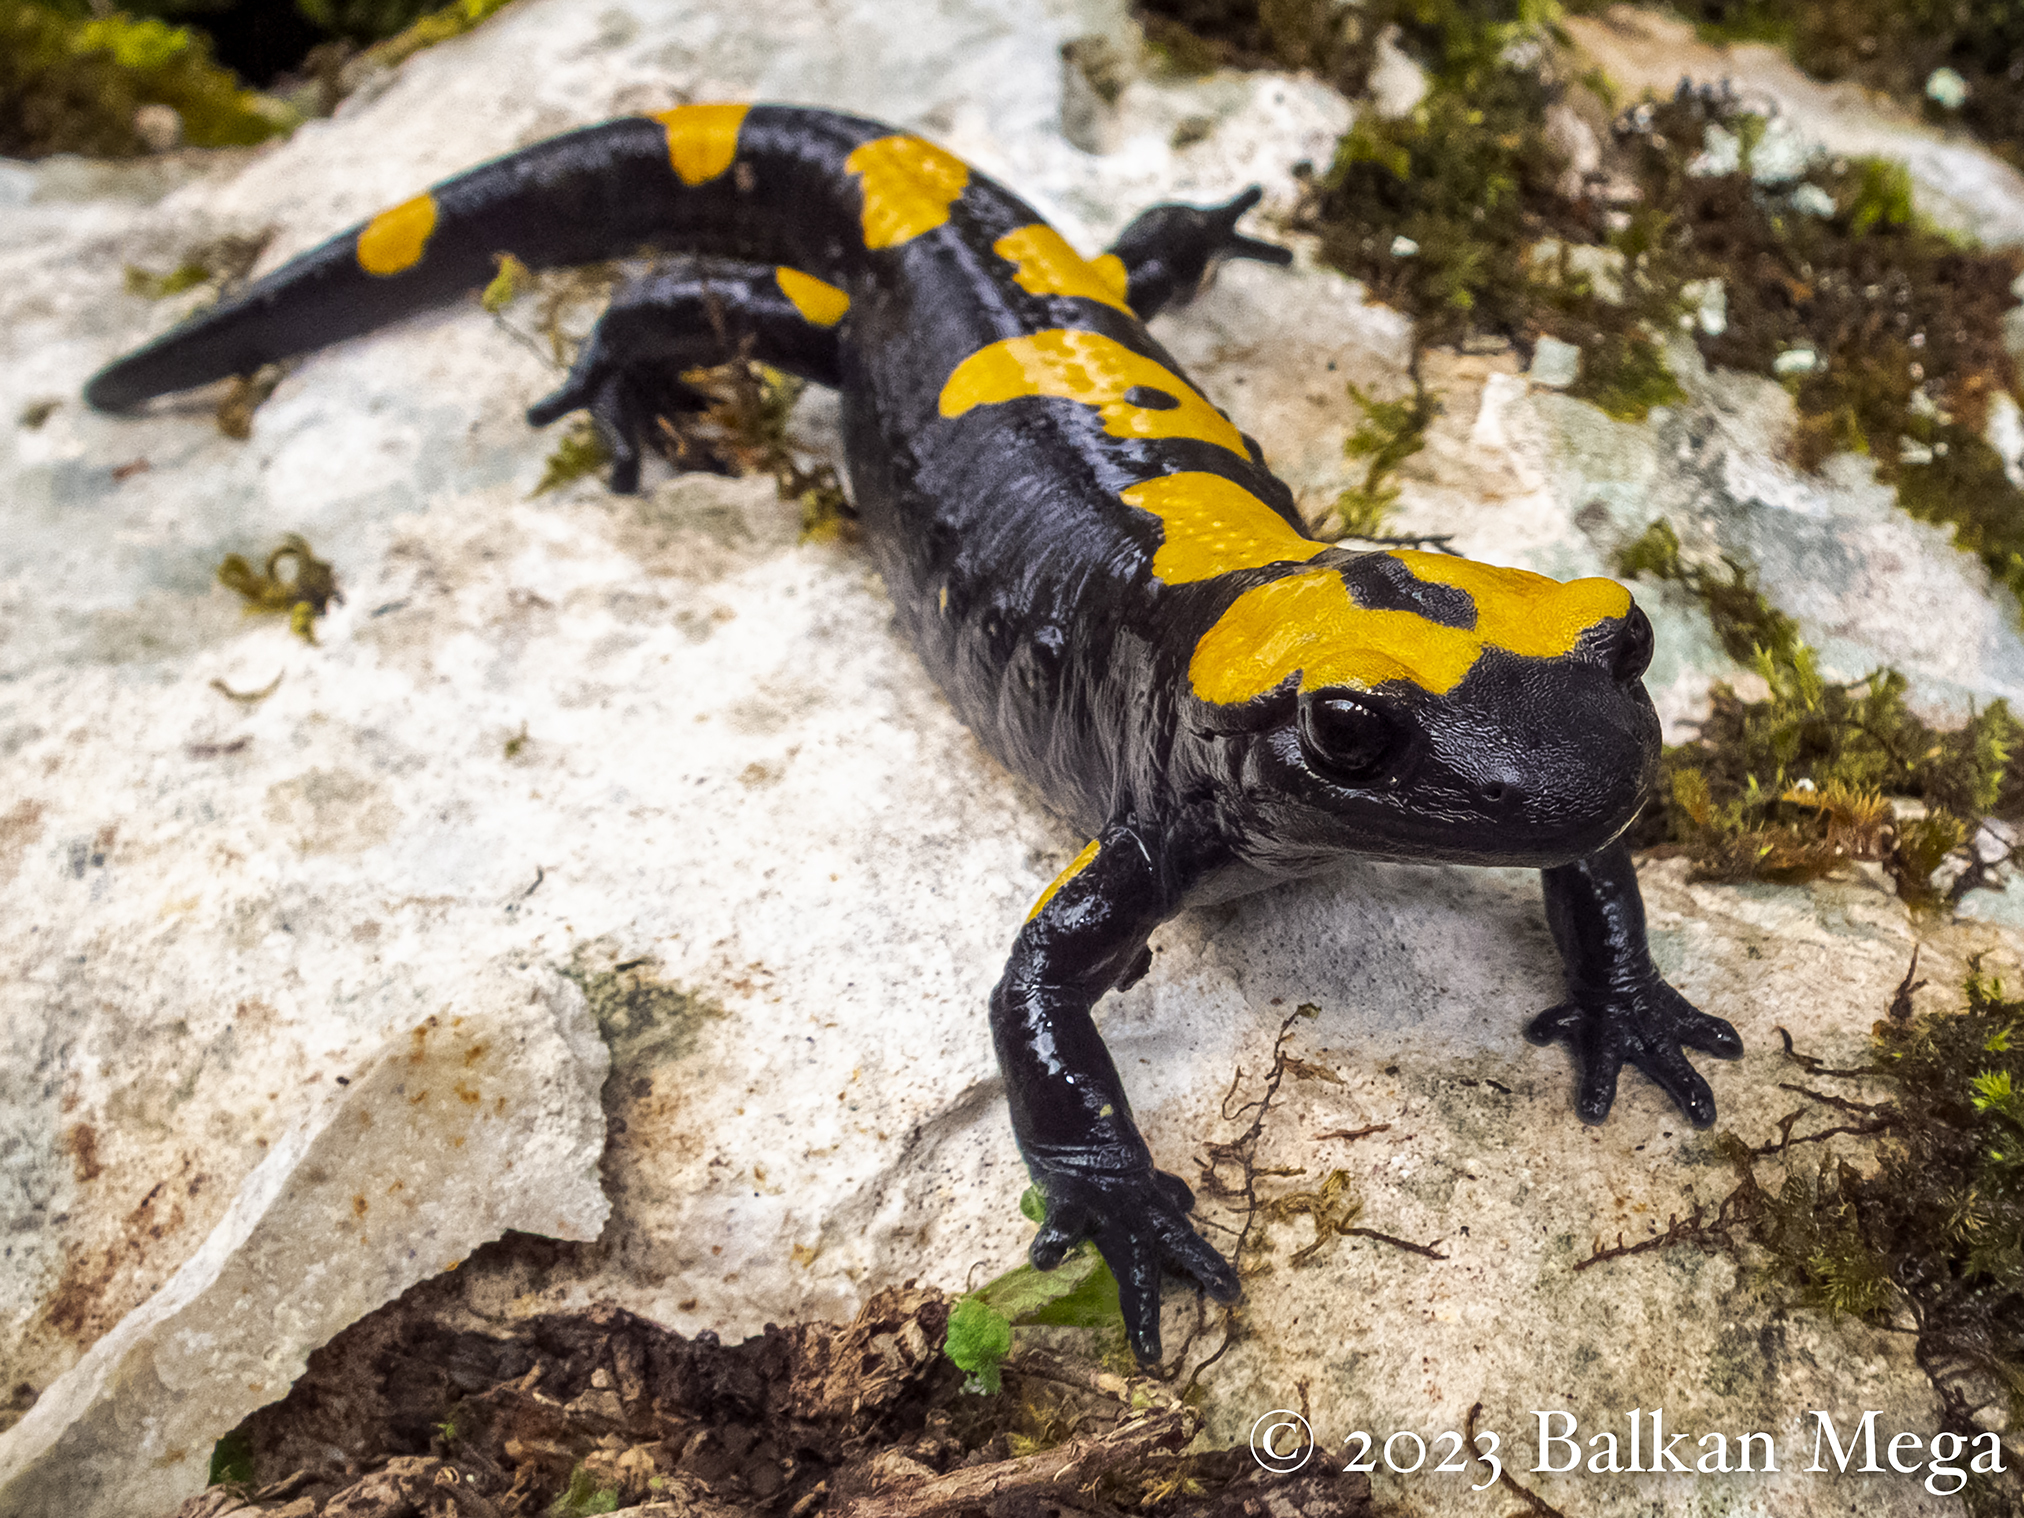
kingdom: Animalia
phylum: Chordata
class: Amphibia
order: Caudata
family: Salamandridae
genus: Salamandra
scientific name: Salamandra infraimmaculata
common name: Near-eastern fire salamander
